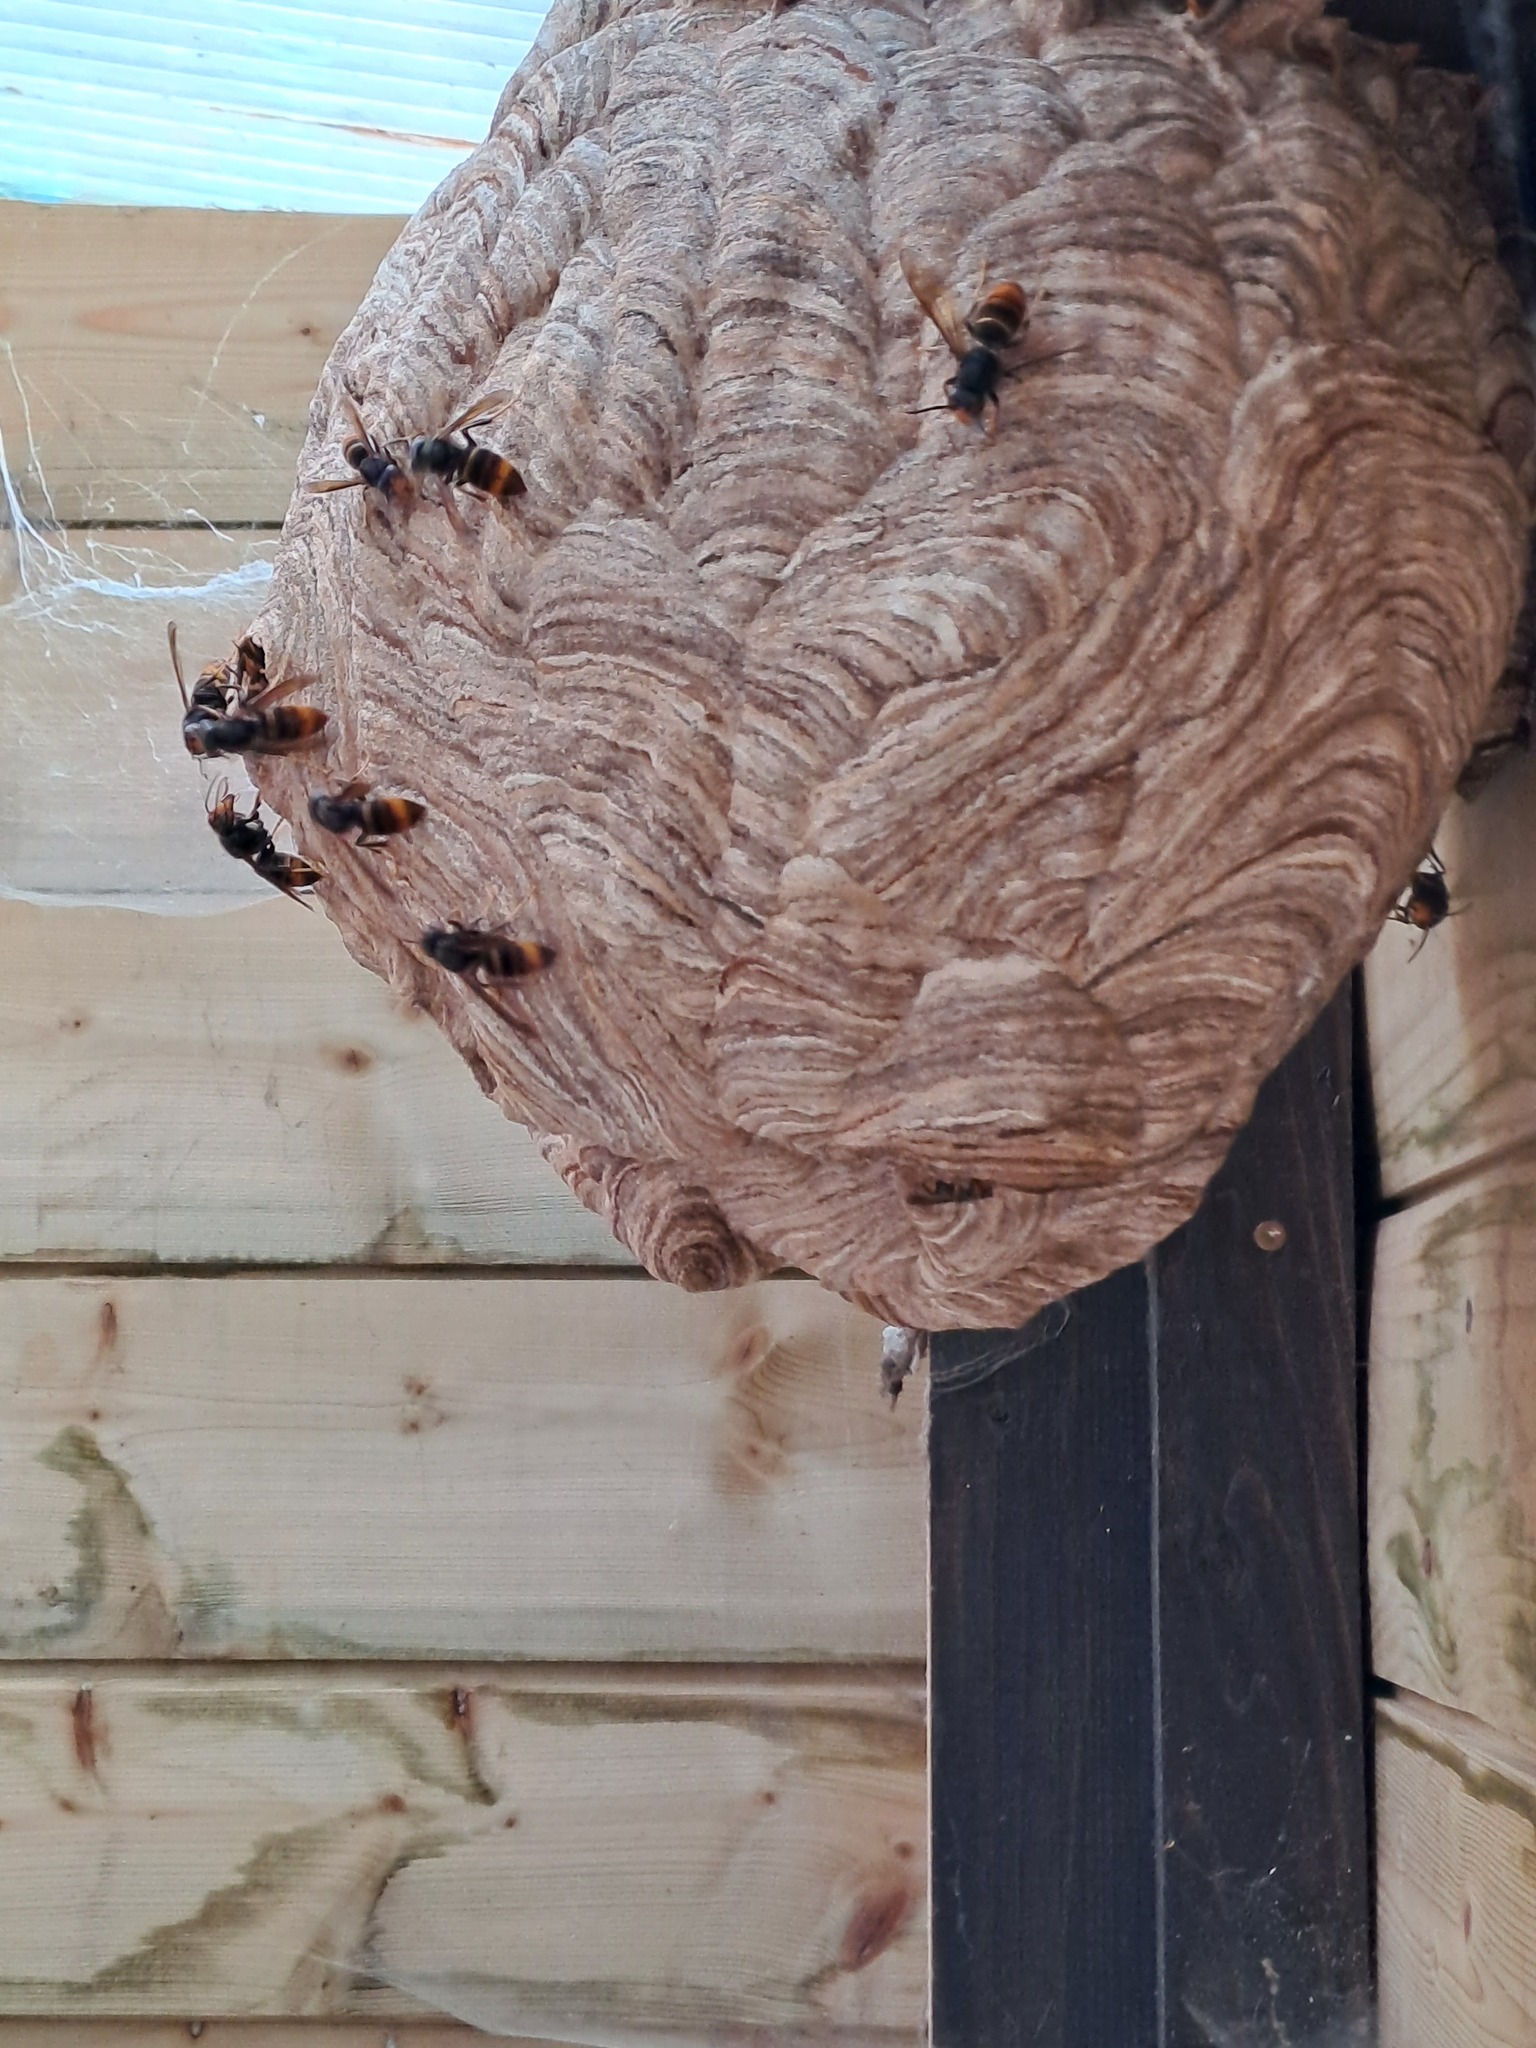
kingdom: Animalia
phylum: Arthropoda
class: Insecta
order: Hymenoptera
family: Vespidae
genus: Vespa
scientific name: Vespa velutina
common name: Asian hornet
